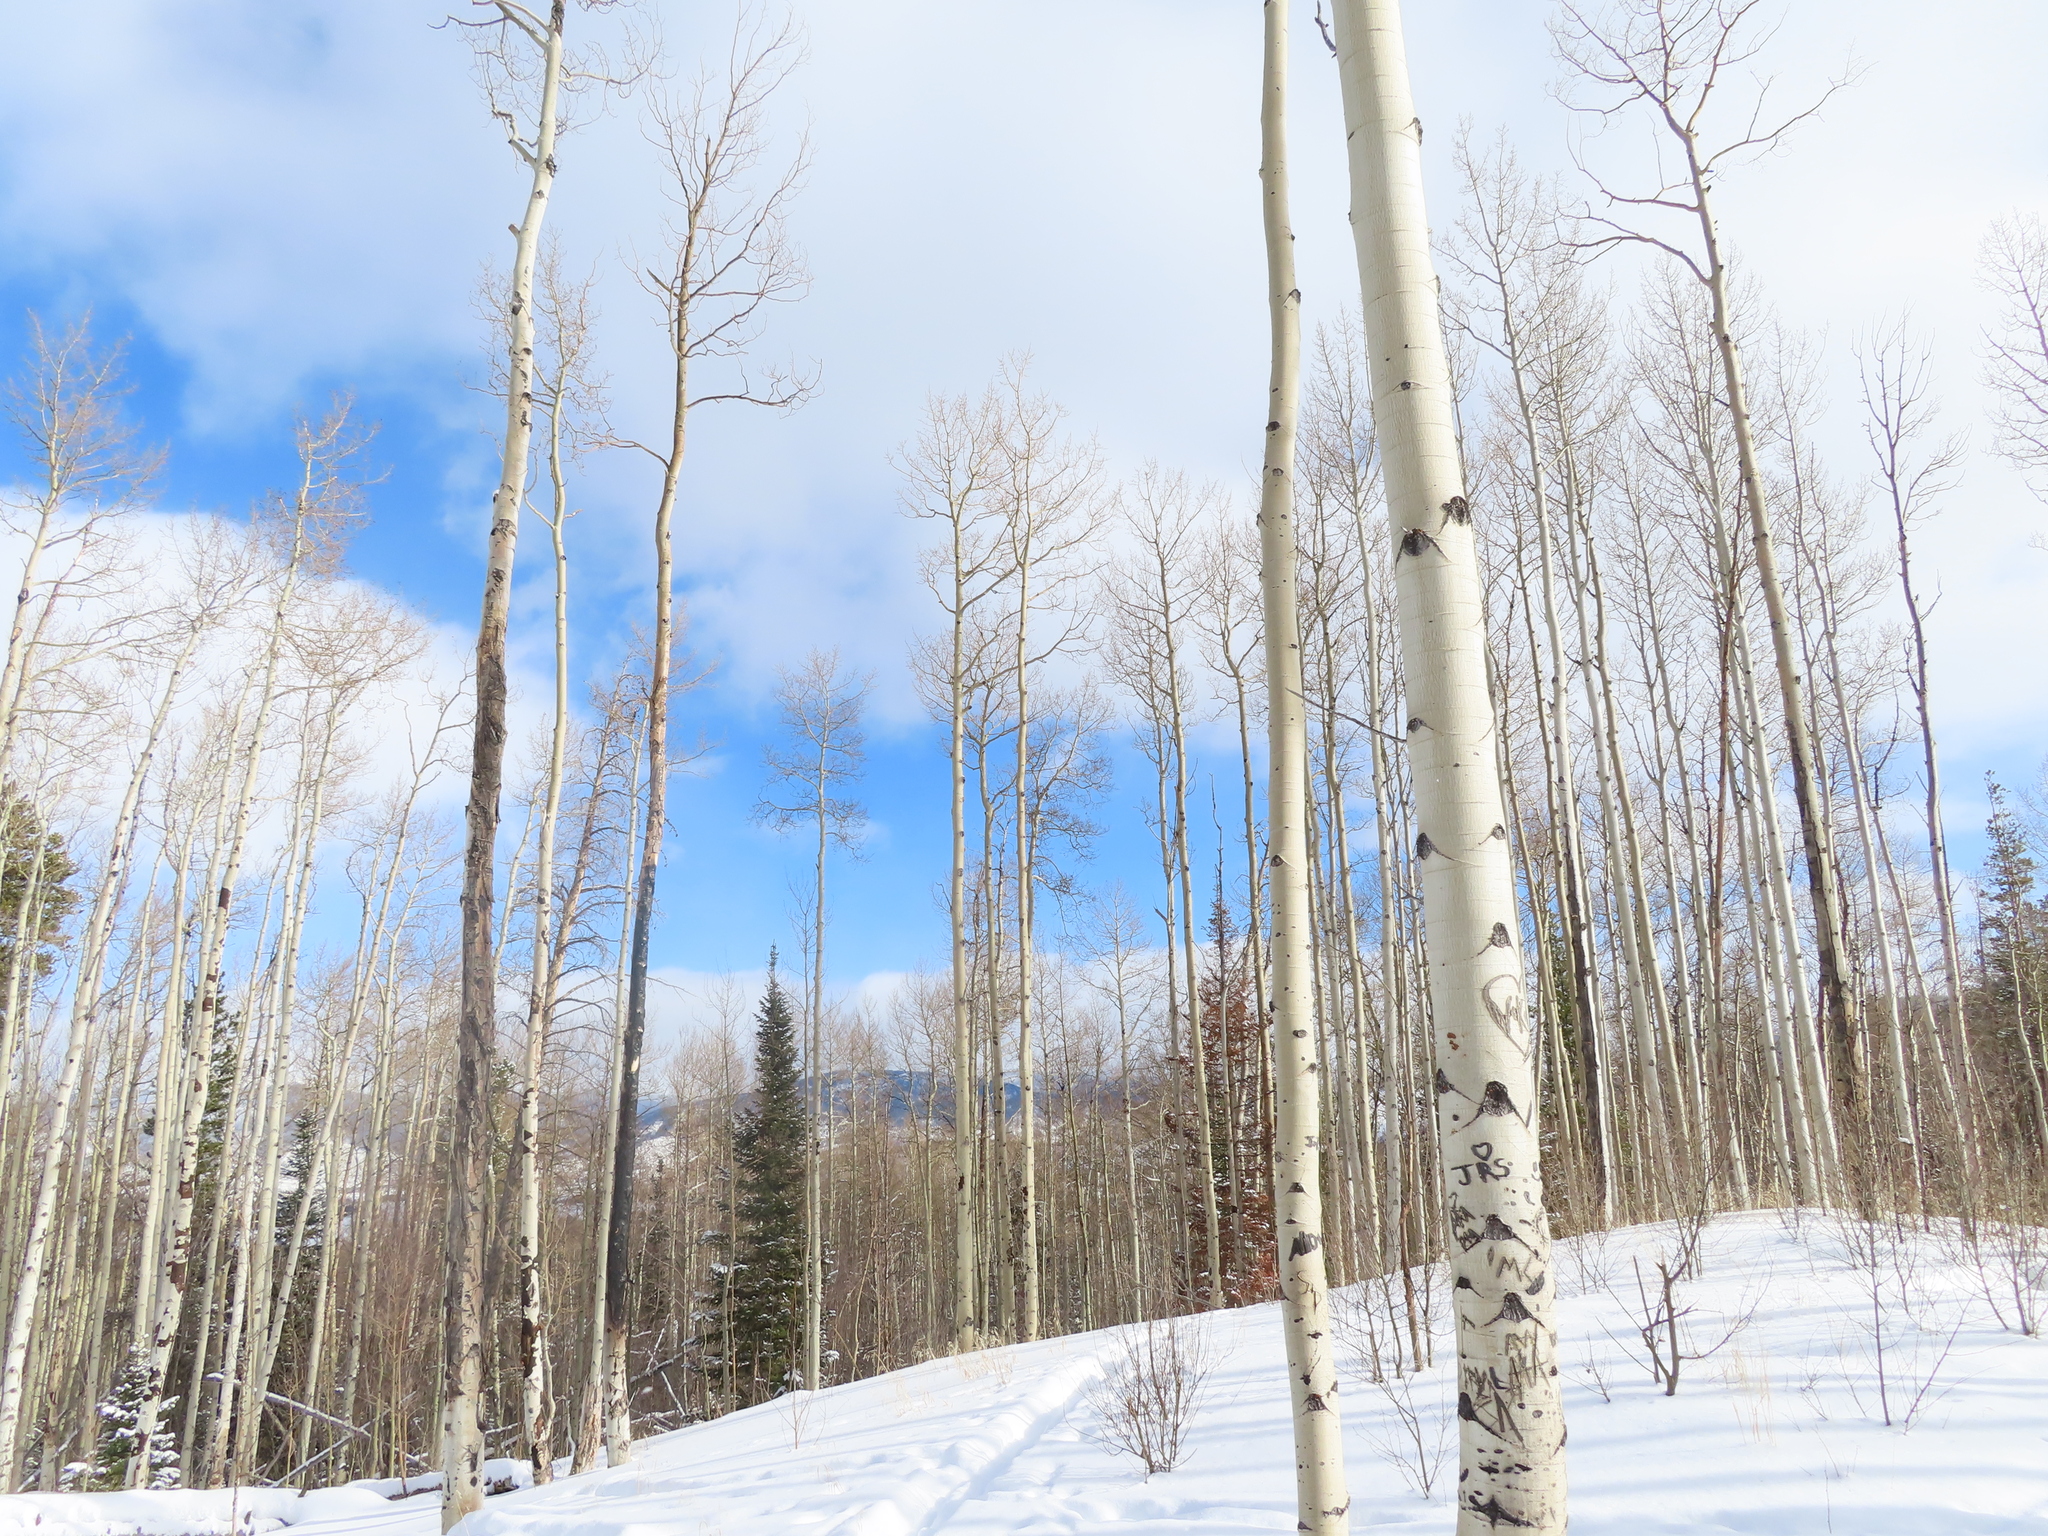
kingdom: Plantae
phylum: Tracheophyta
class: Magnoliopsida
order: Malpighiales
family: Salicaceae
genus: Populus
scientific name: Populus tremuloides
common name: Quaking aspen
